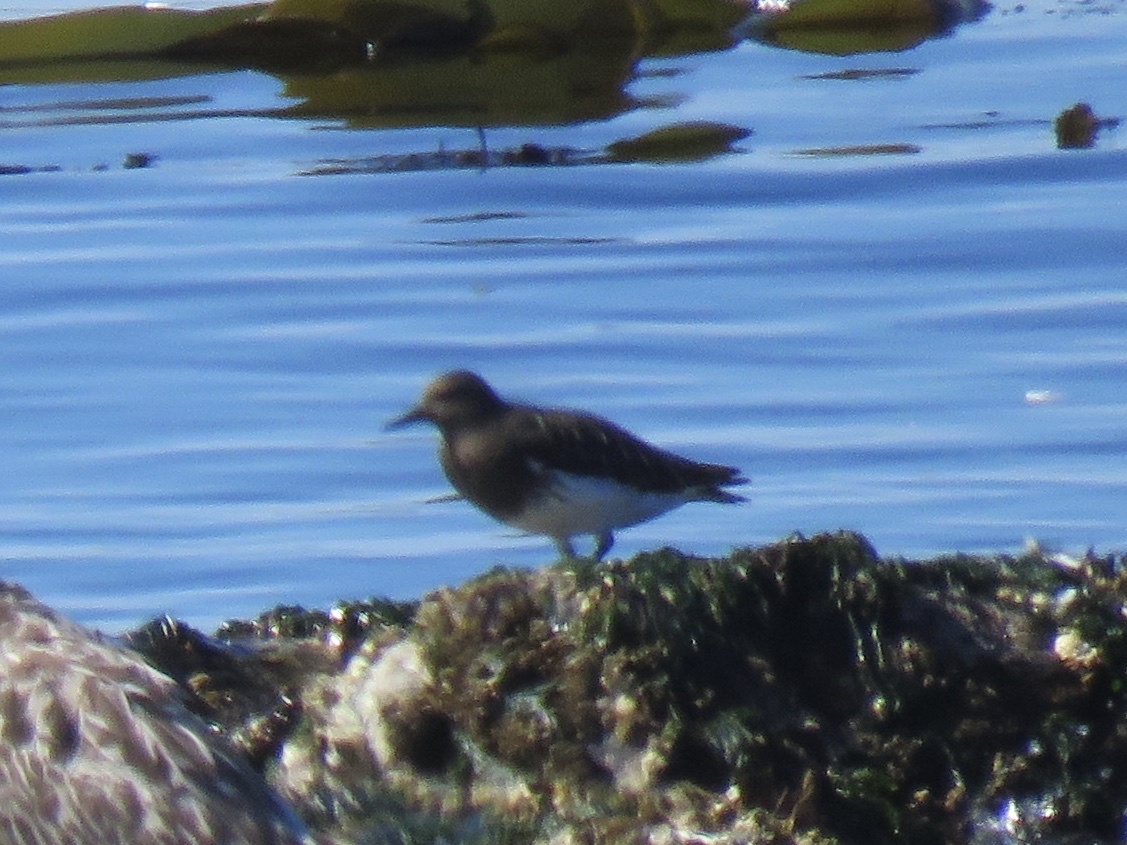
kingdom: Animalia
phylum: Chordata
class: Aves
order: Charadriiformes
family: Scolopacidae
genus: Arenaria
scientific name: Arenaria melanocephala
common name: Black turnstone
